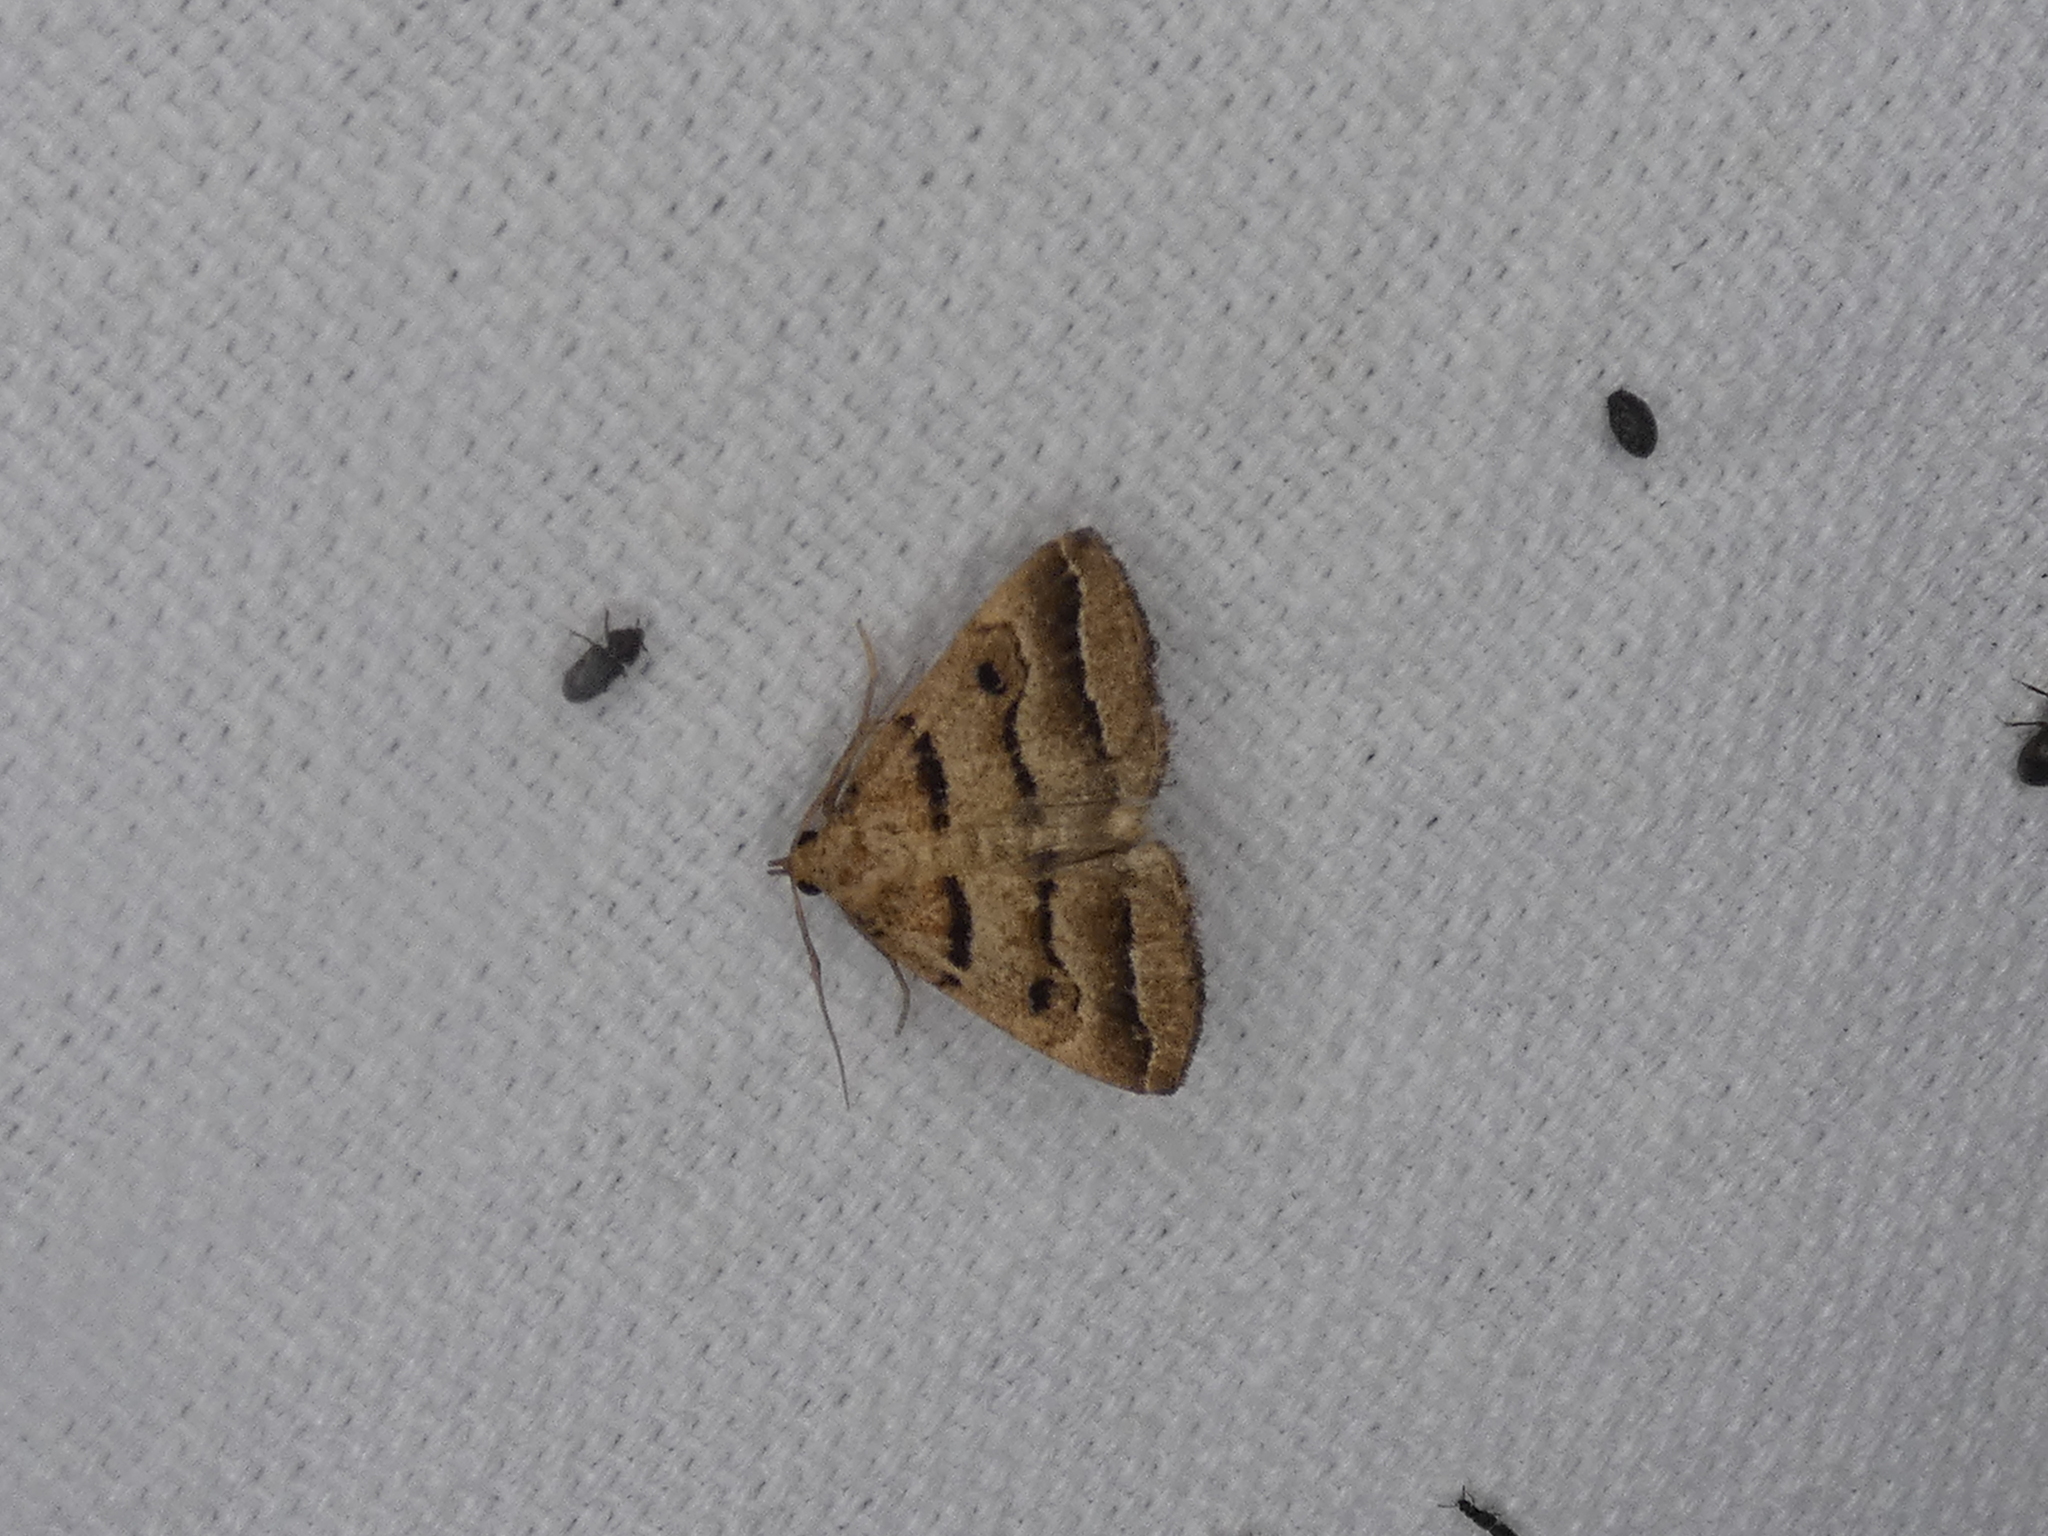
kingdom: Animalia
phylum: Arthropoda
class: Insecta
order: Lepidoptera
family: Erebidae
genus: Zanclognatha
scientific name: Zanclognatha atrilineella
